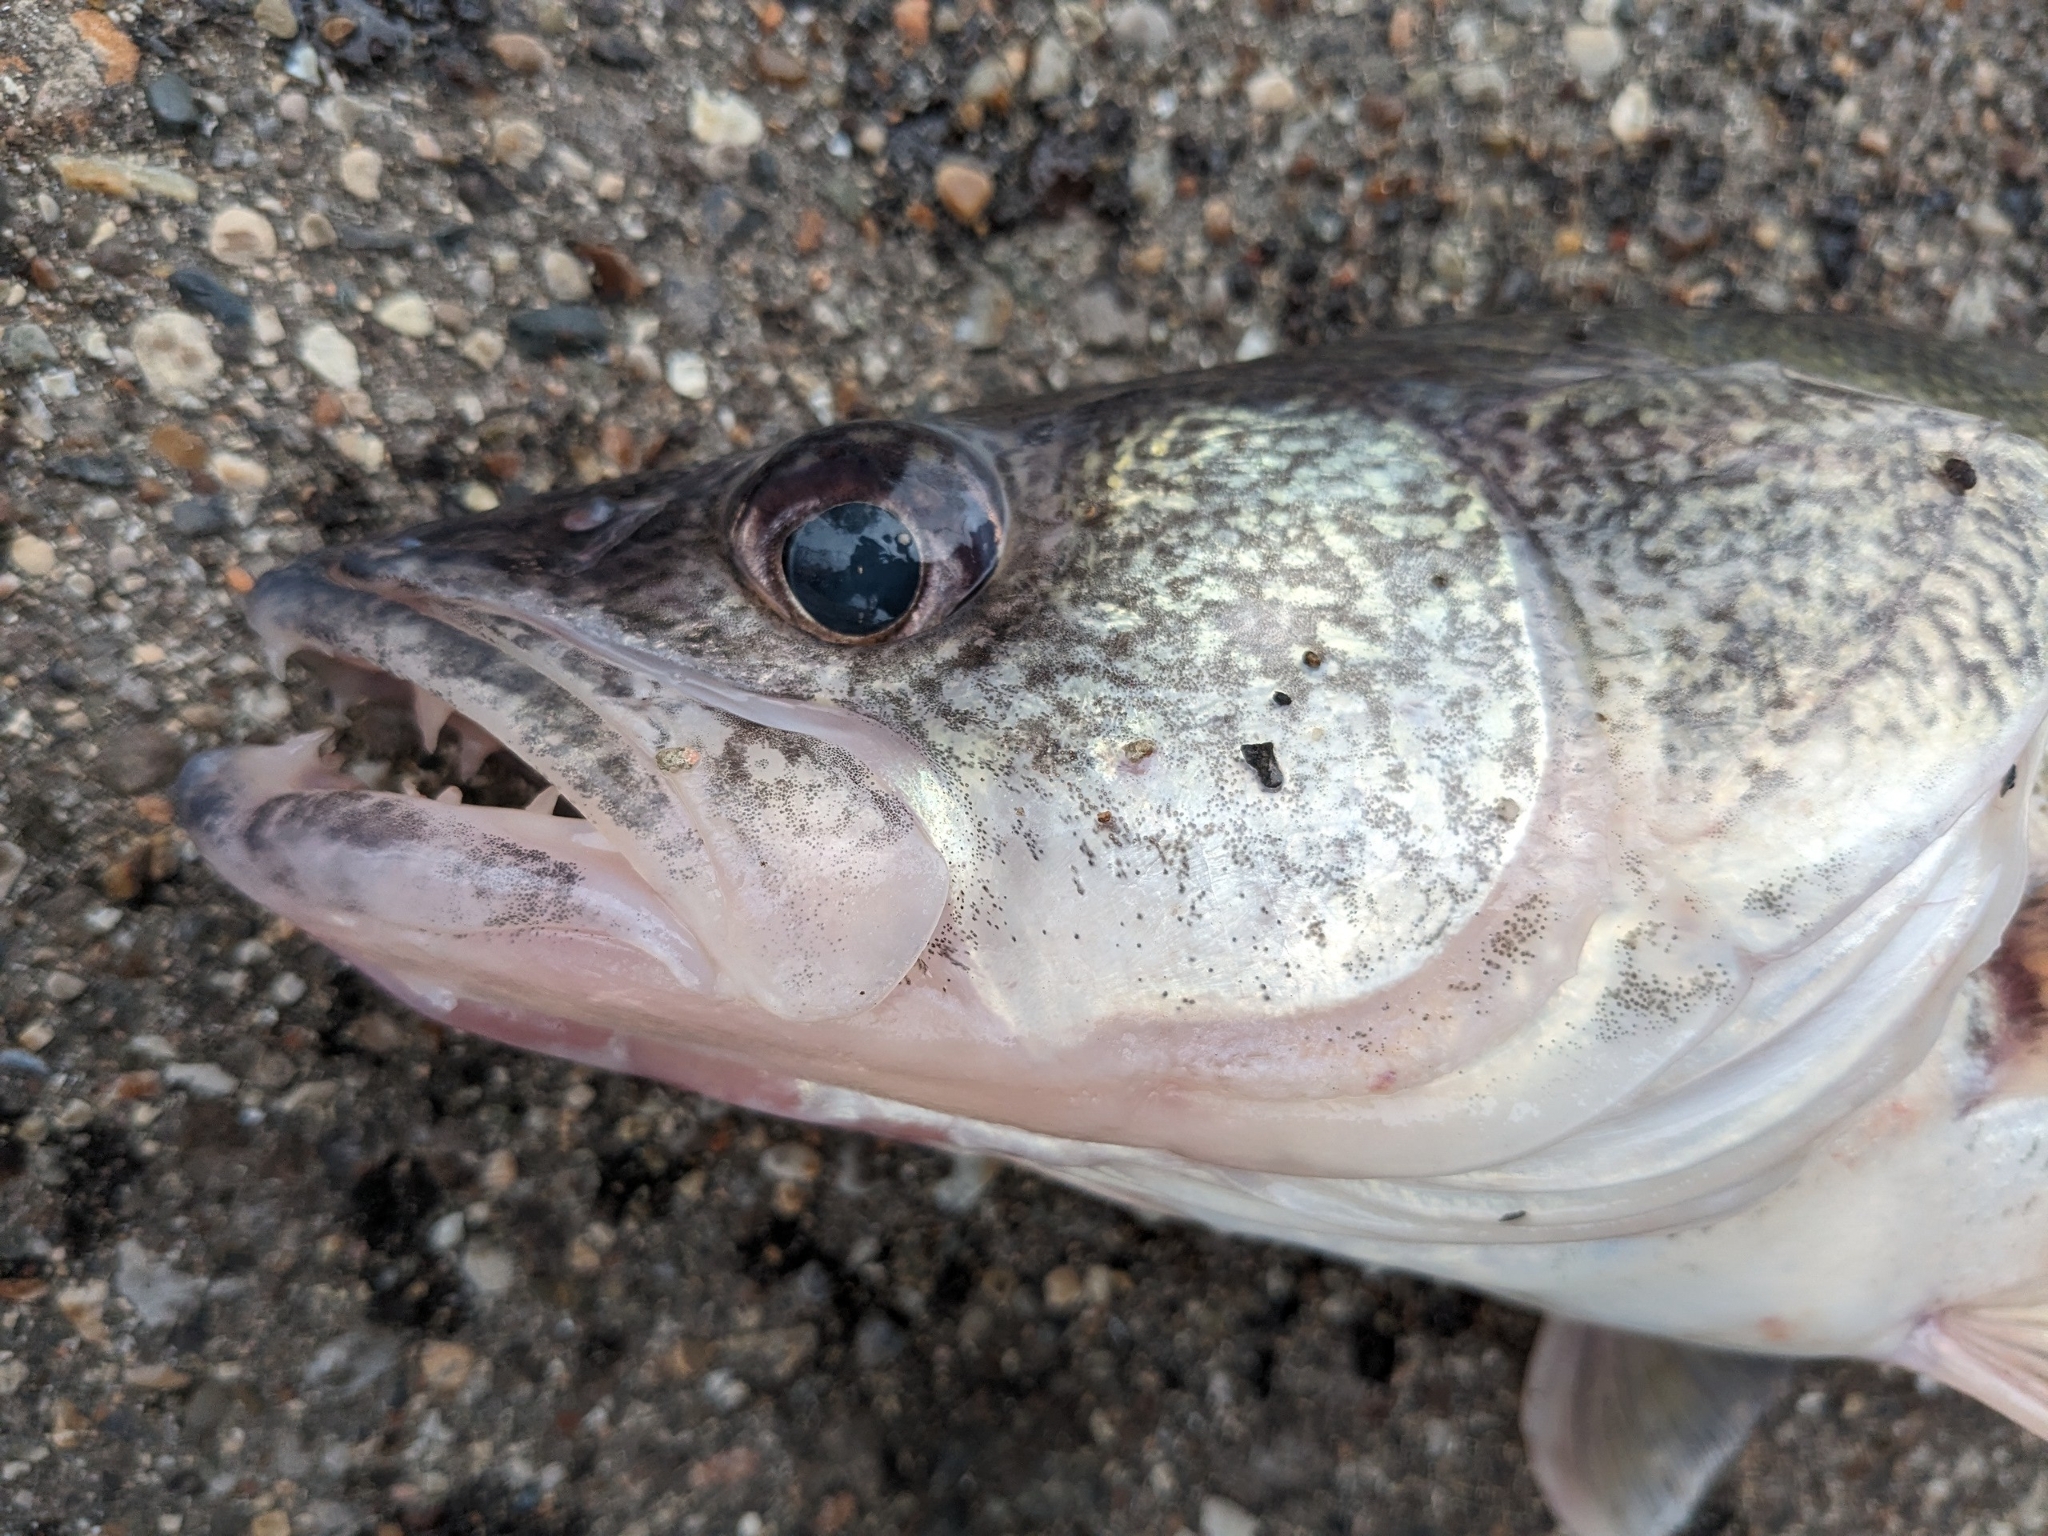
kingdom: Animalia
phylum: Chordata
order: Perciformes
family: Percidae
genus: Sander
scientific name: Sander vitreus
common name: Walleye
